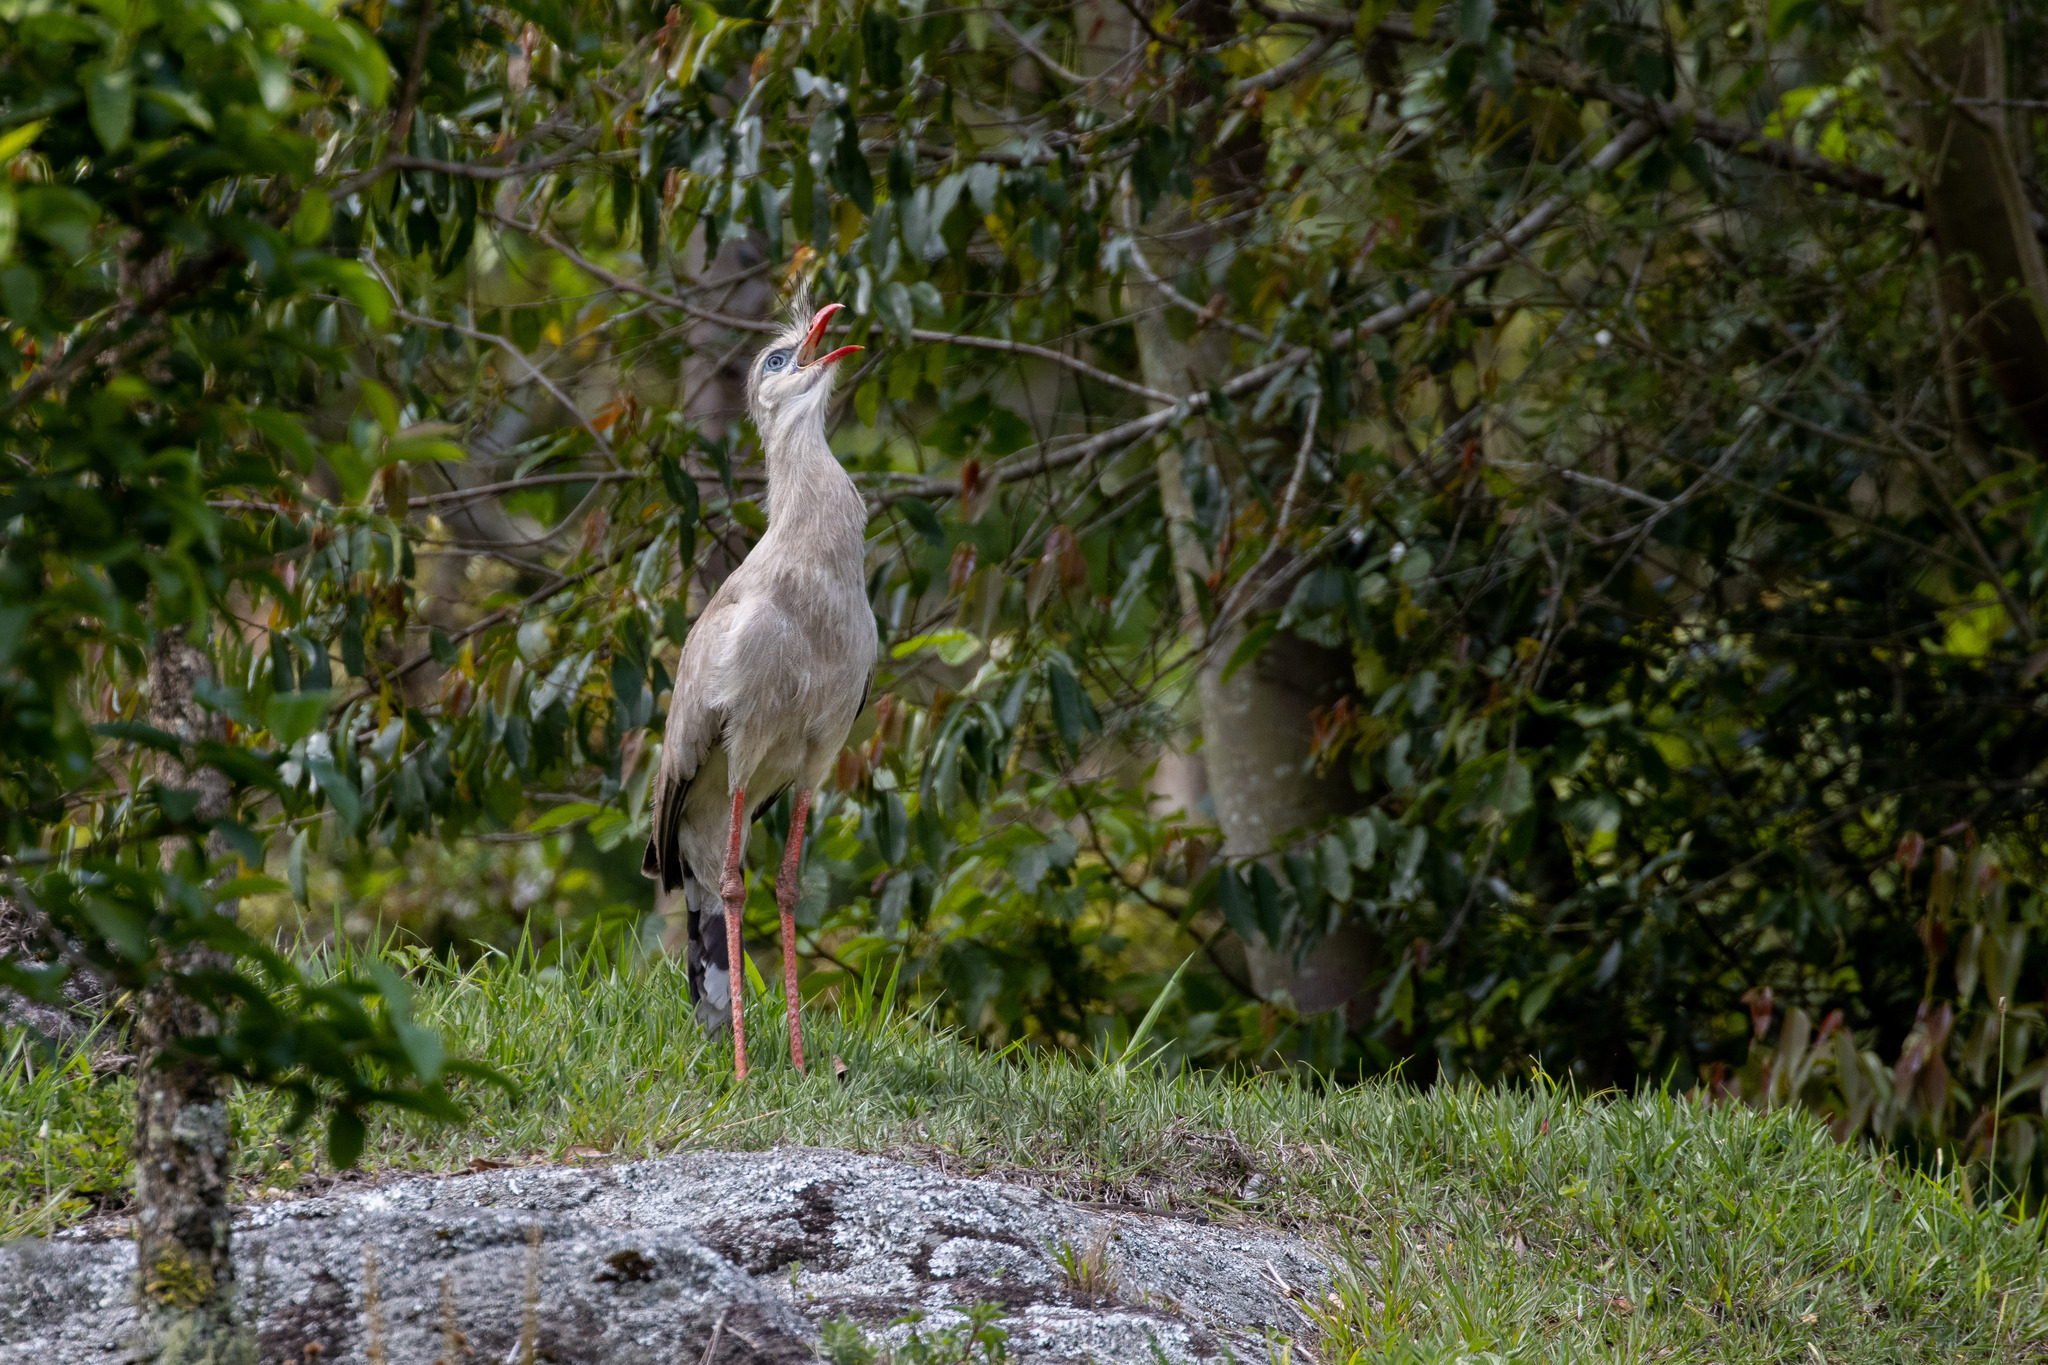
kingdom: Animalia
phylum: Chordata
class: Aves
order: Cariamiformes
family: Cariamidae
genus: Cariama
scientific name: Cariama cristata
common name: Red-legged seriema
